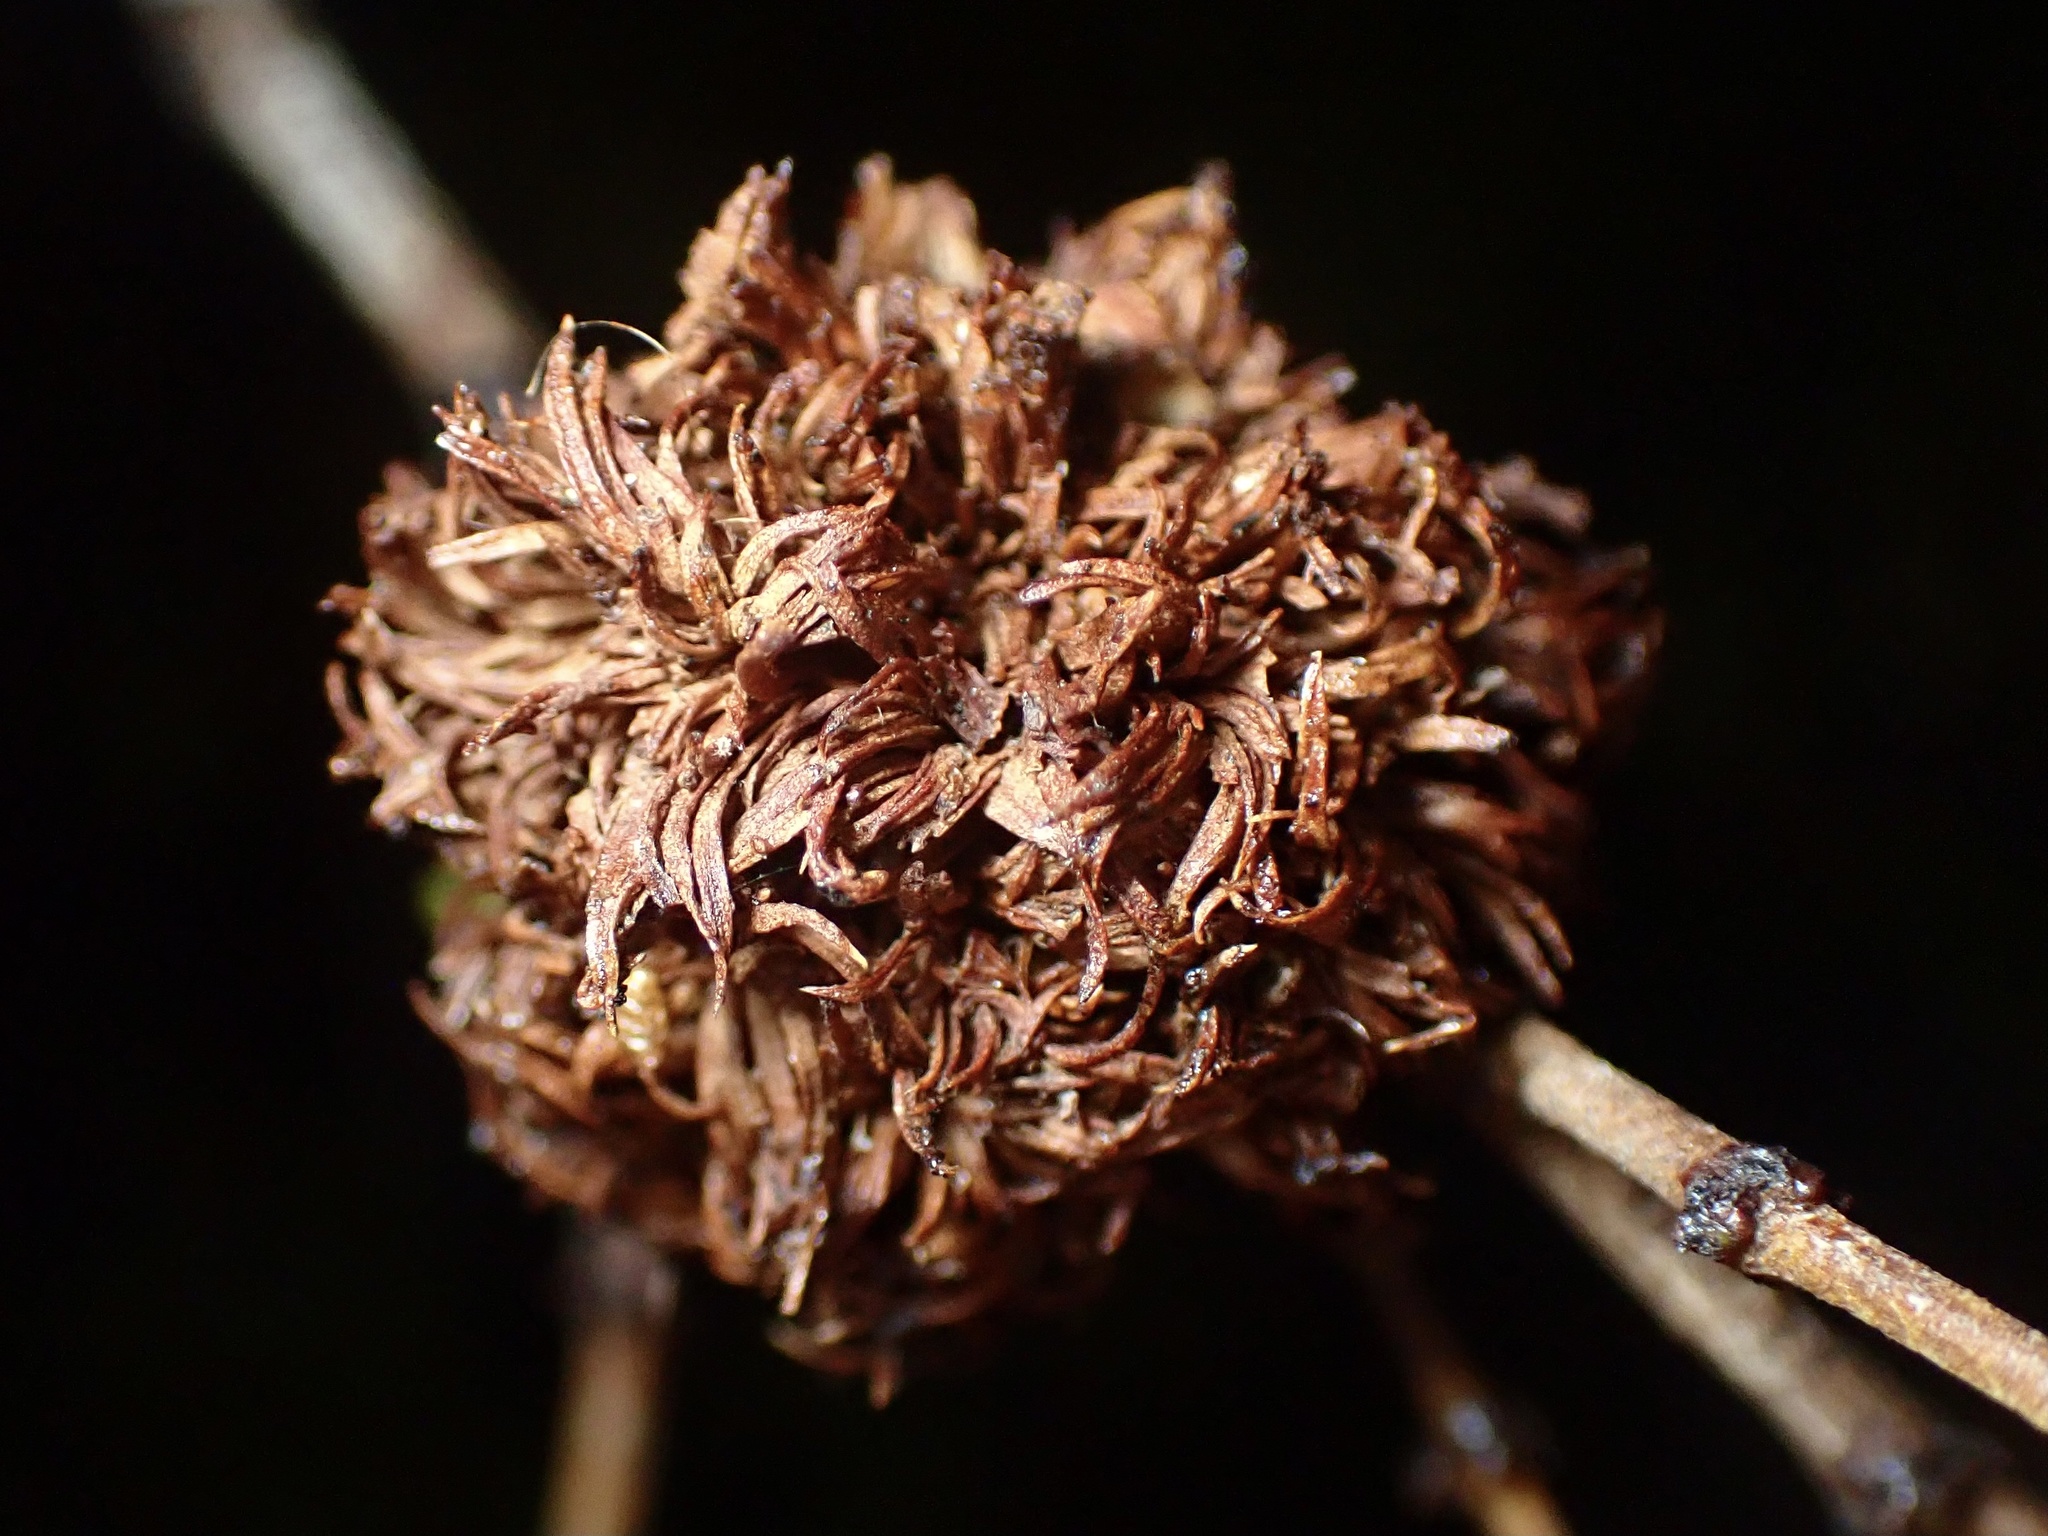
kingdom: Animalia
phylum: Arthropoda
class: Insecta
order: Diptera
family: Cecidomyiidae
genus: Asphondylia
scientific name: Asphondylia auripila
